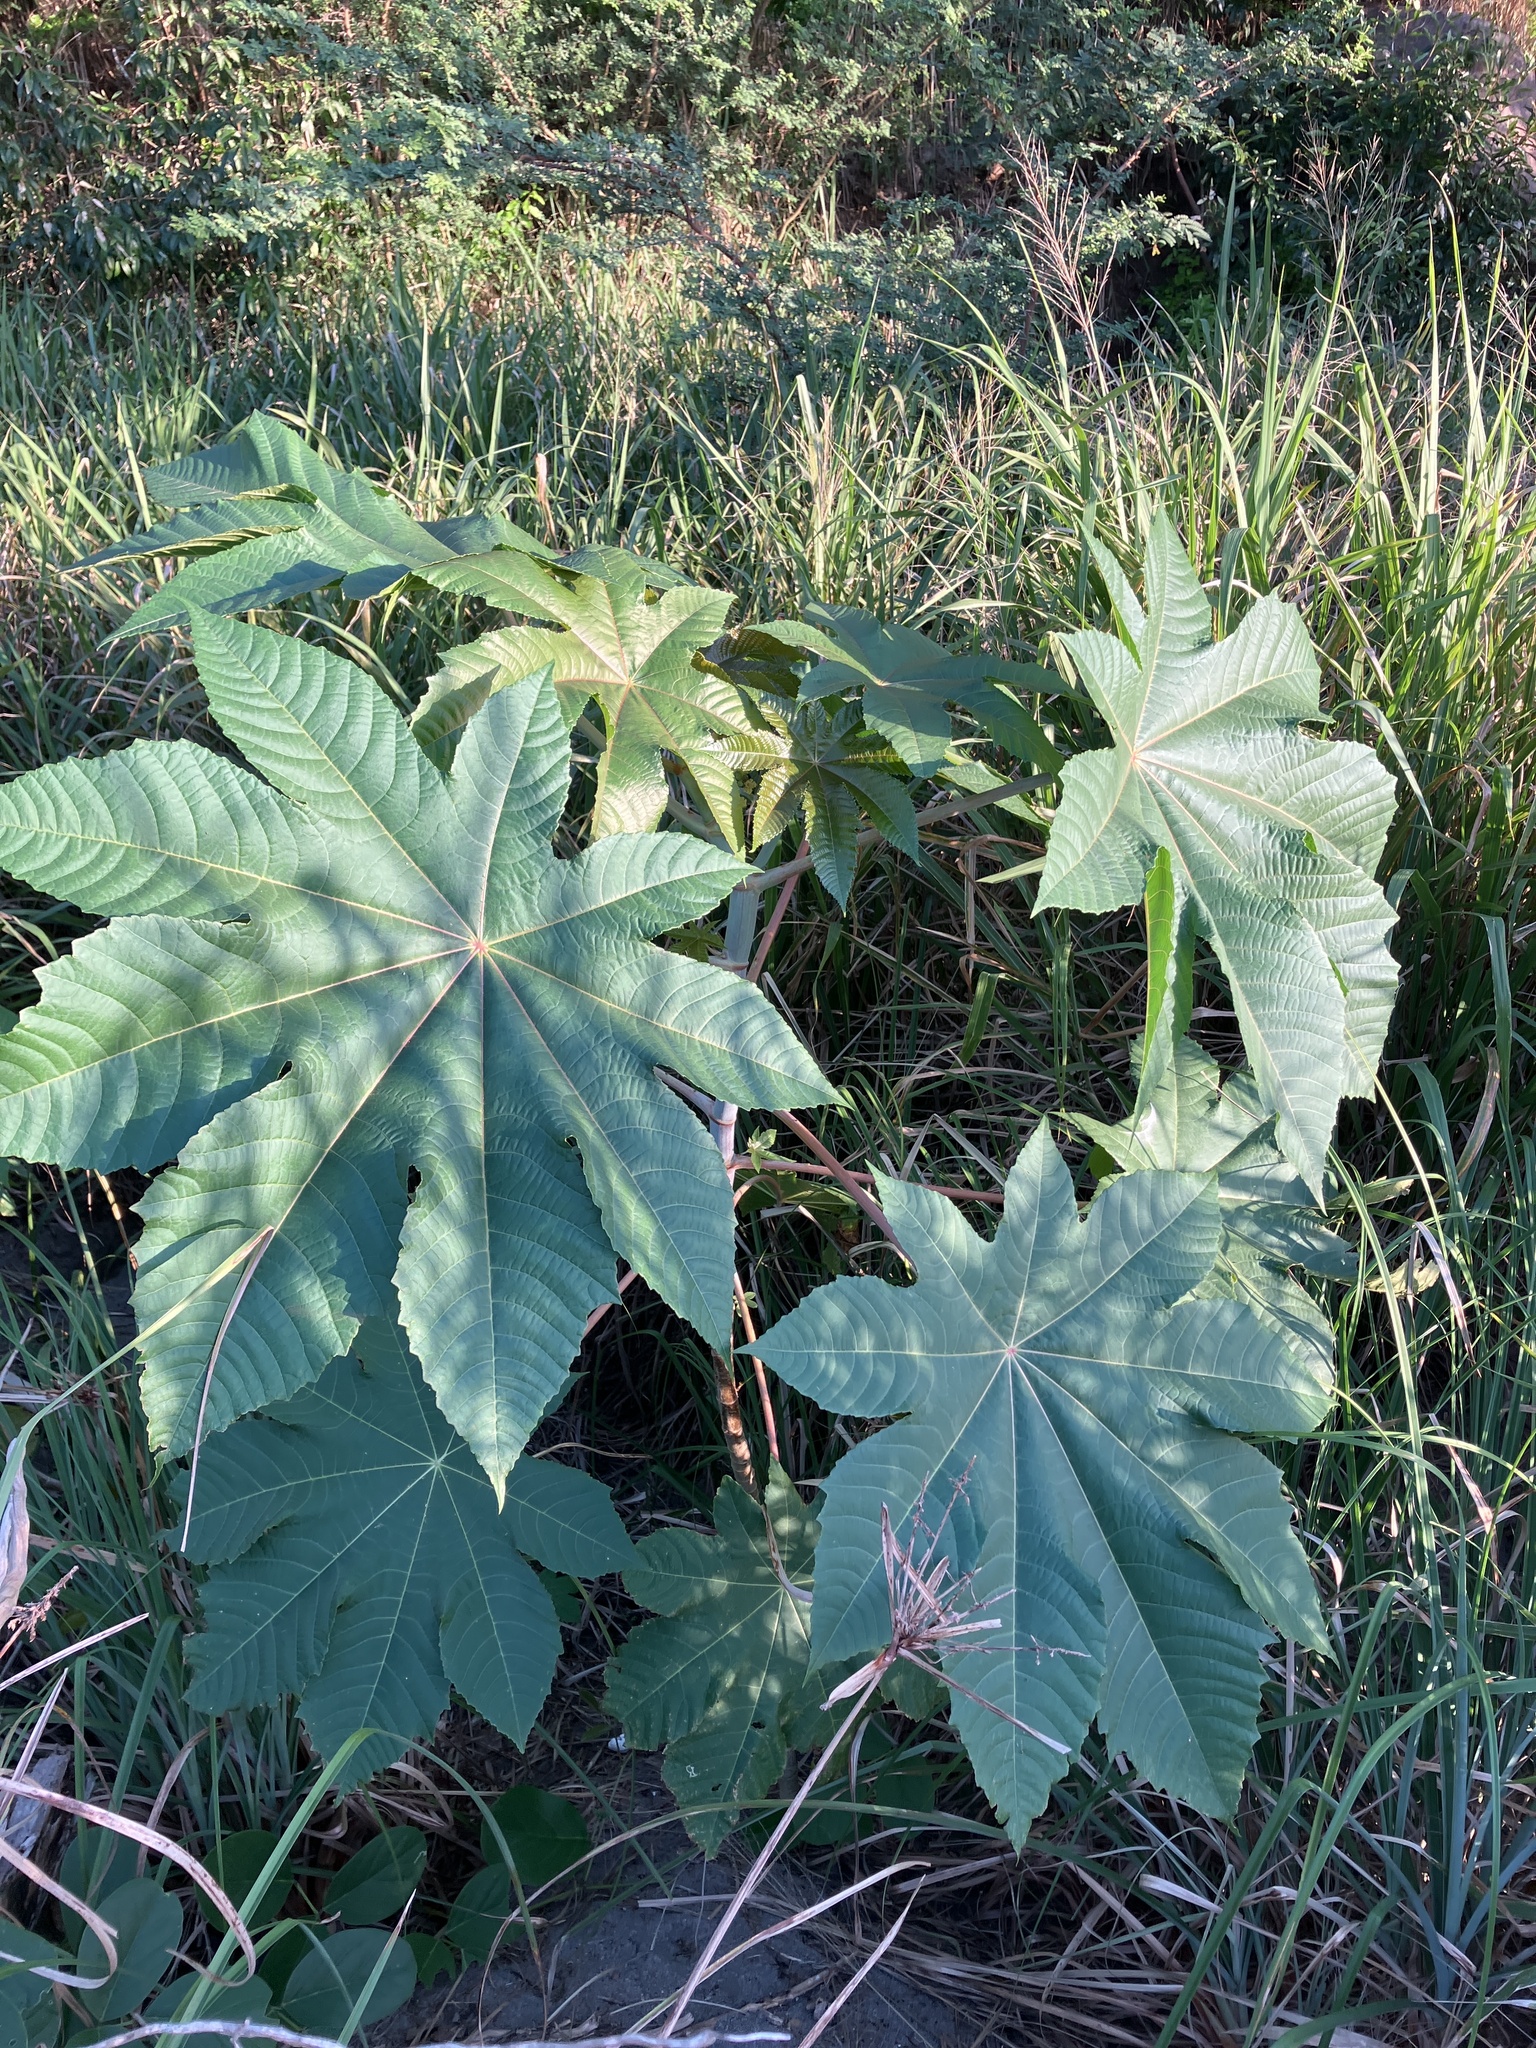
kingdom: Plantae
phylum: Tracheophyta
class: Magnoliopsida
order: Malpighiales
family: Euphorbiaceae
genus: Ricinus
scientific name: Ricinus communis
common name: Castor-oil-plant
